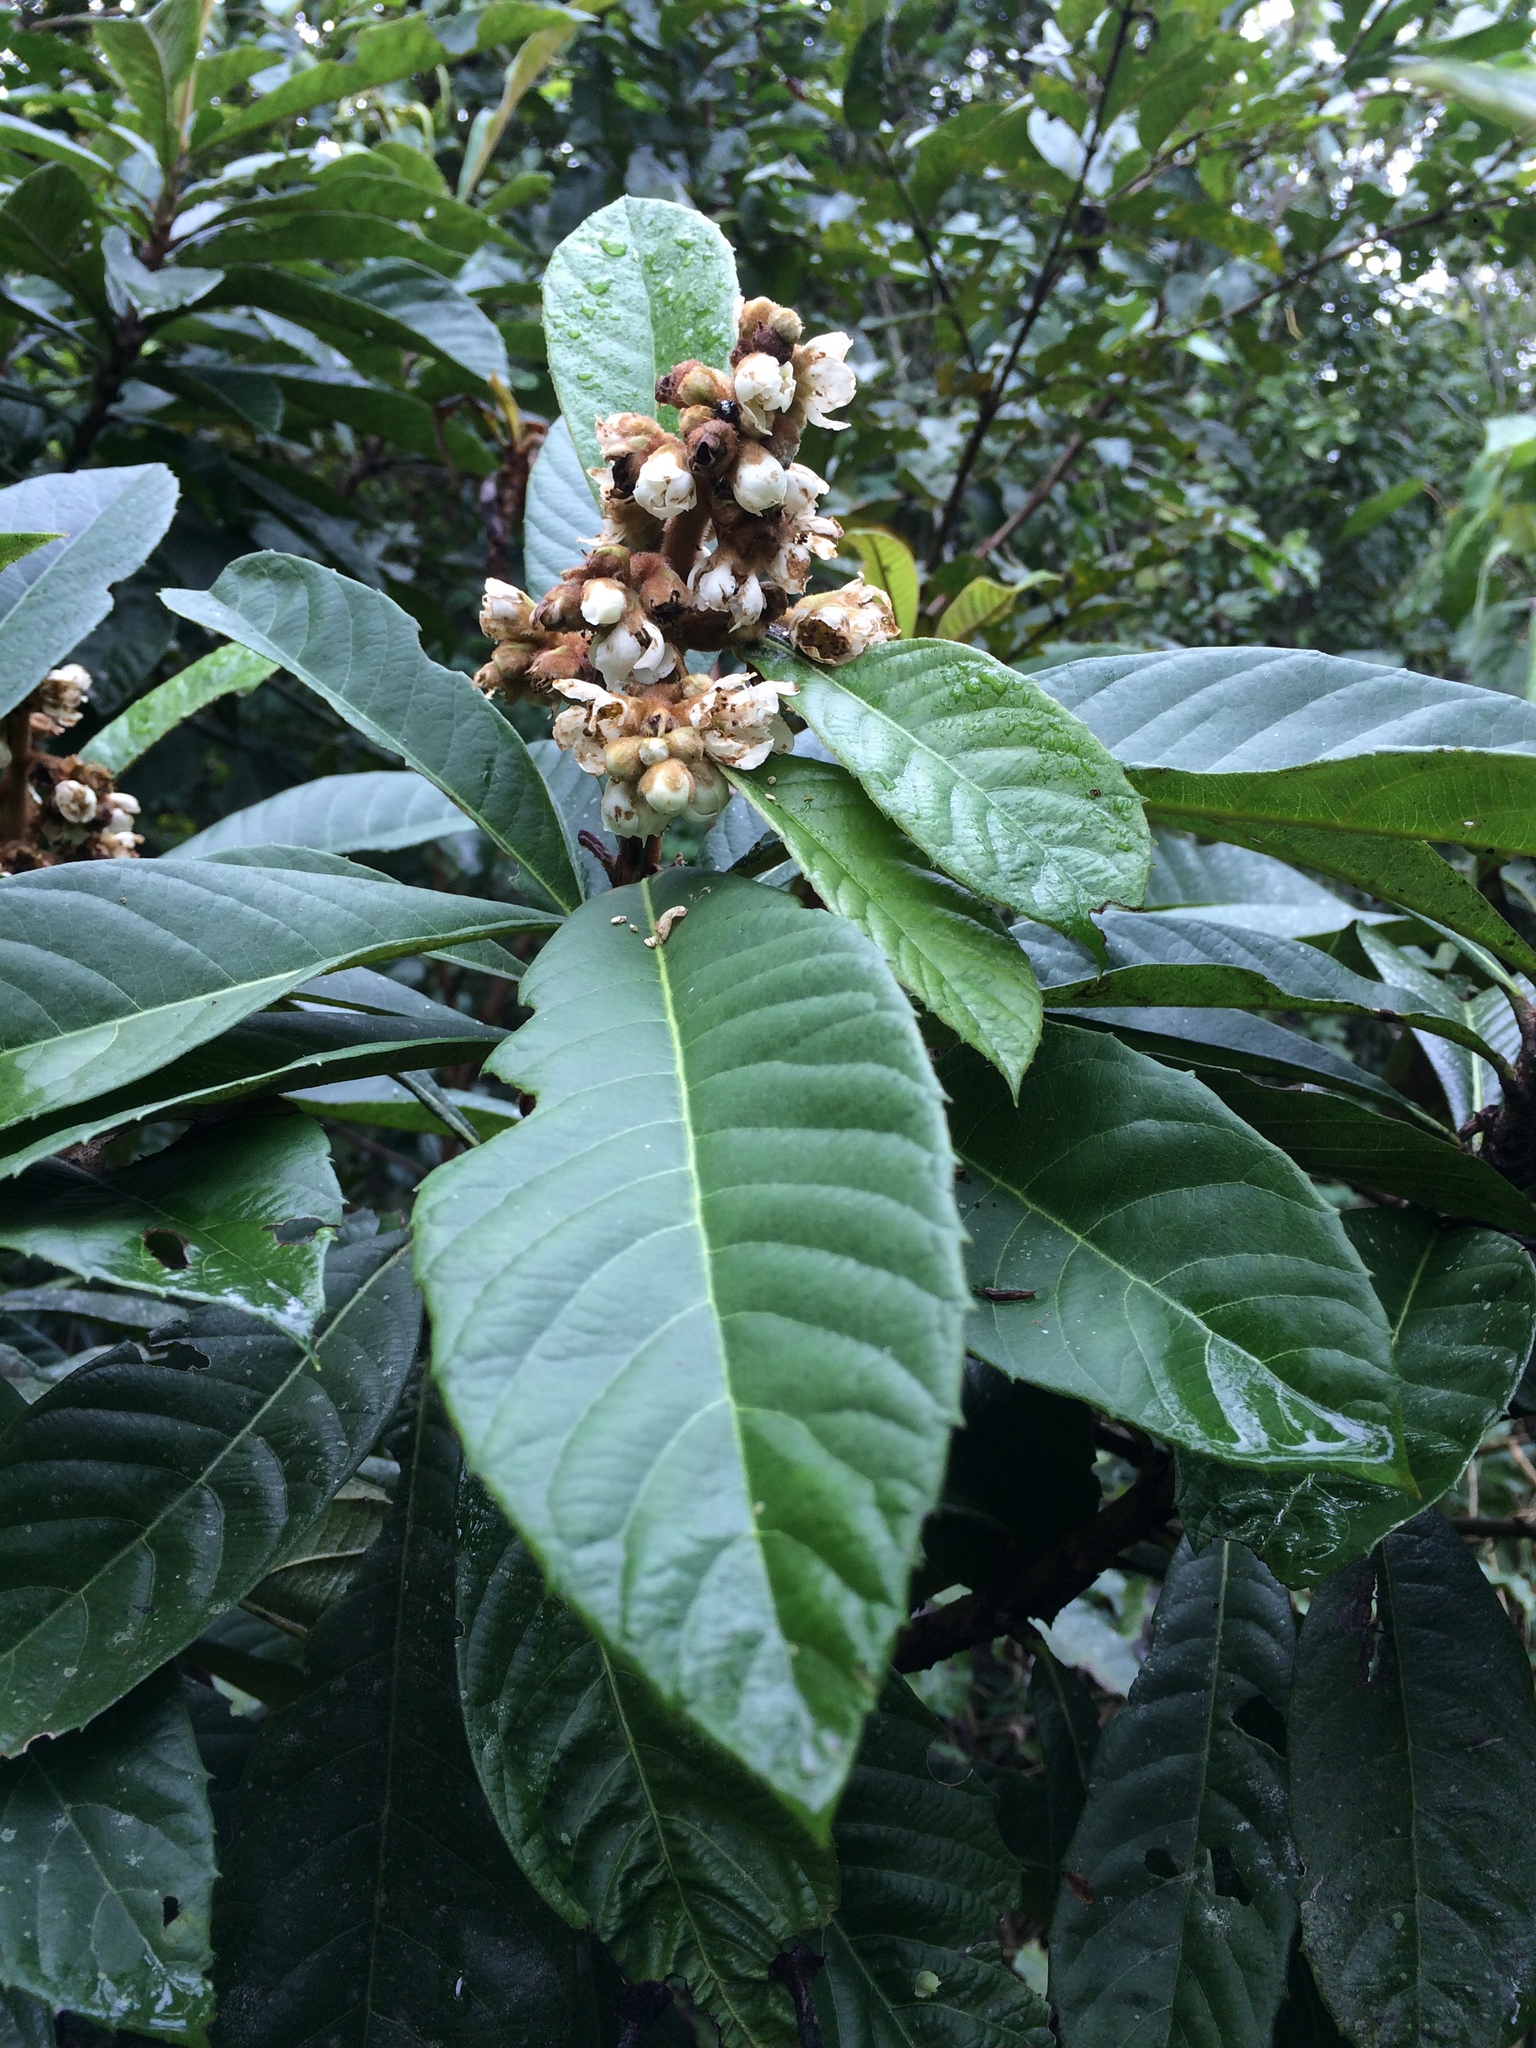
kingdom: Plantae
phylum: Tracheophyta
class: Magnoliopsida
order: Rosales
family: Rosaceae
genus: Rhaphiolepis
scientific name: Rhaphiolepis bibas
